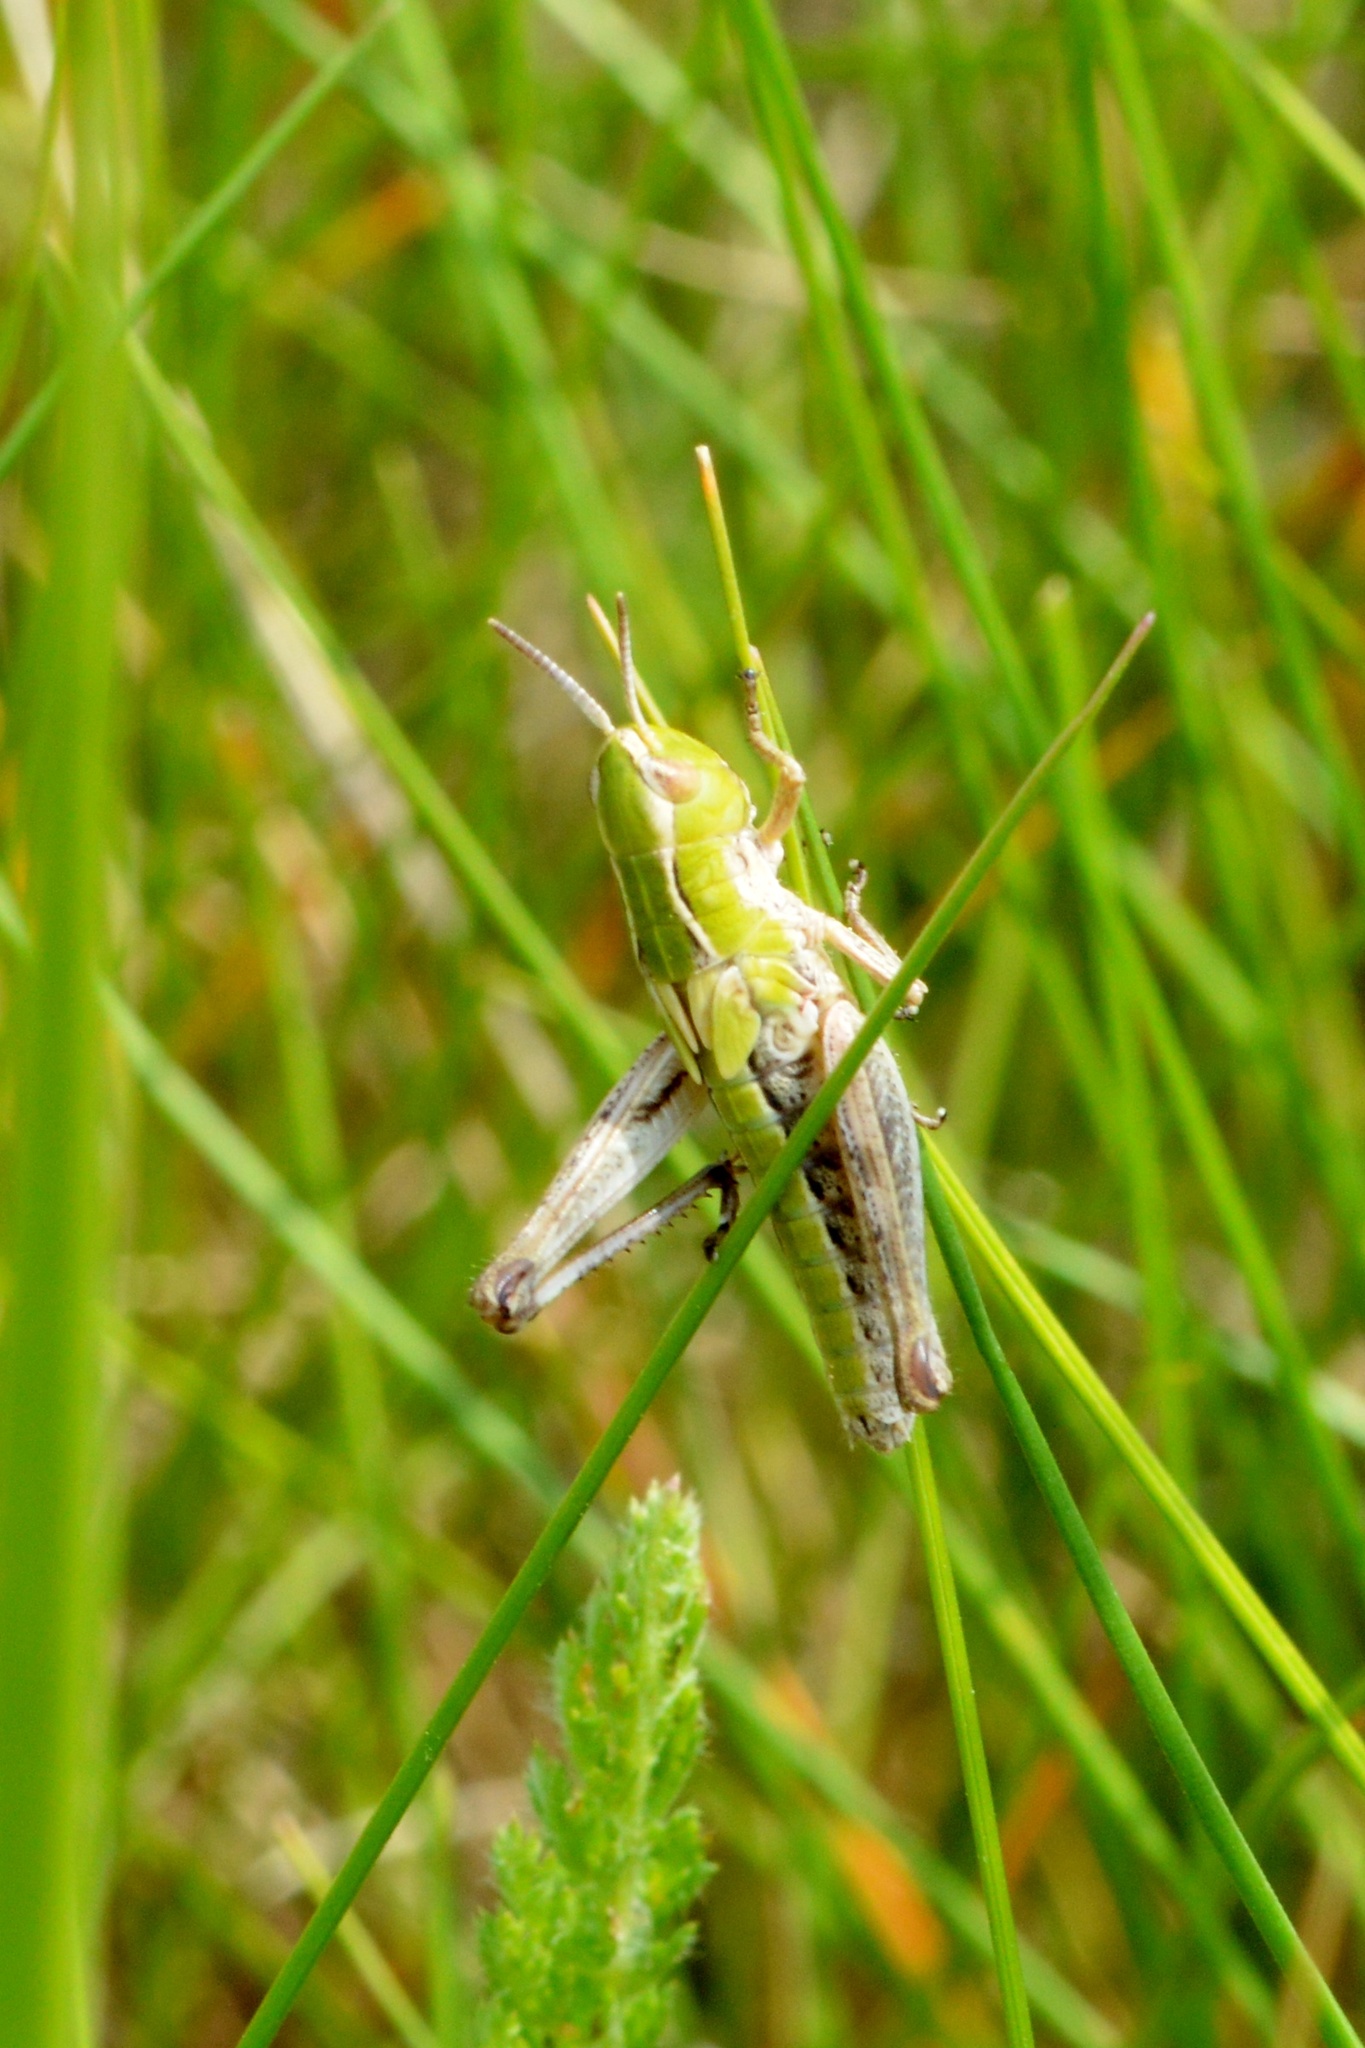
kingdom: Animalia
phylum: Arthropoda
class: Insecta
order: Orthoptera
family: Acrididae
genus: Stenobothrus
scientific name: Stenobothrus lineatus
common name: Stripe-winged grasshopper
